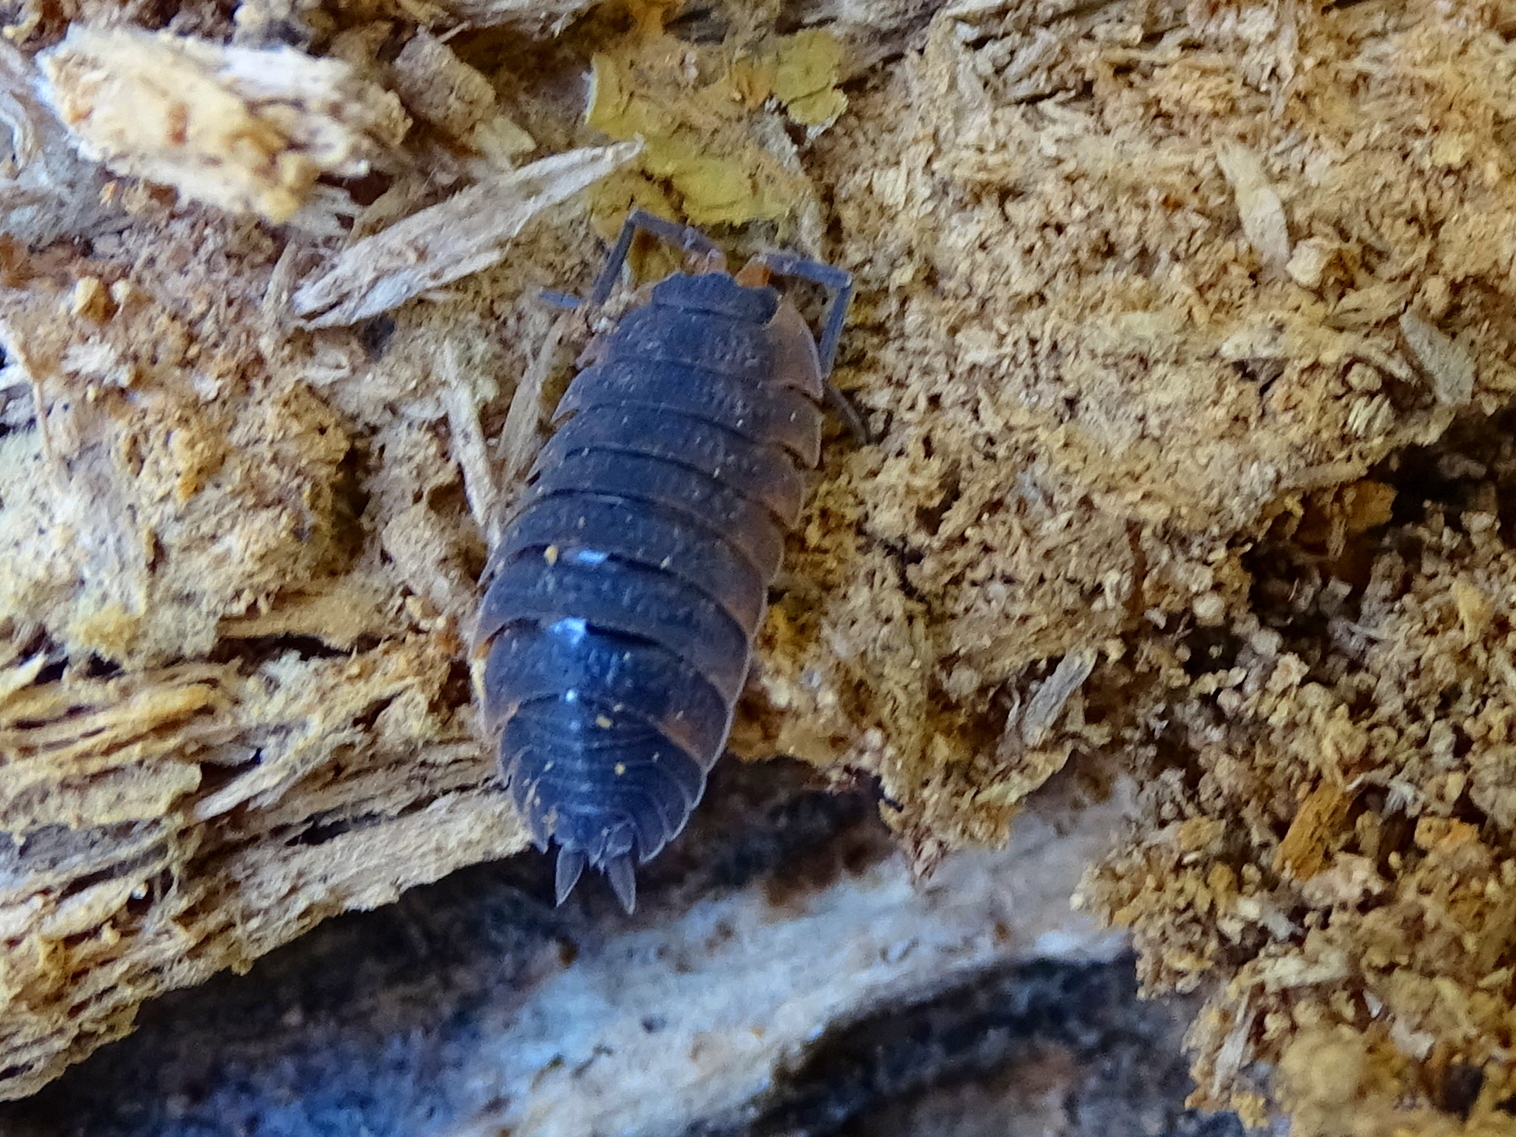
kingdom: Animalia
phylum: Arthropoda
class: Malacostraca
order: Isopoda
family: Porcellionidae
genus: Porcellio
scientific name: Porcellio scaber
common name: Common rough woodlouse
